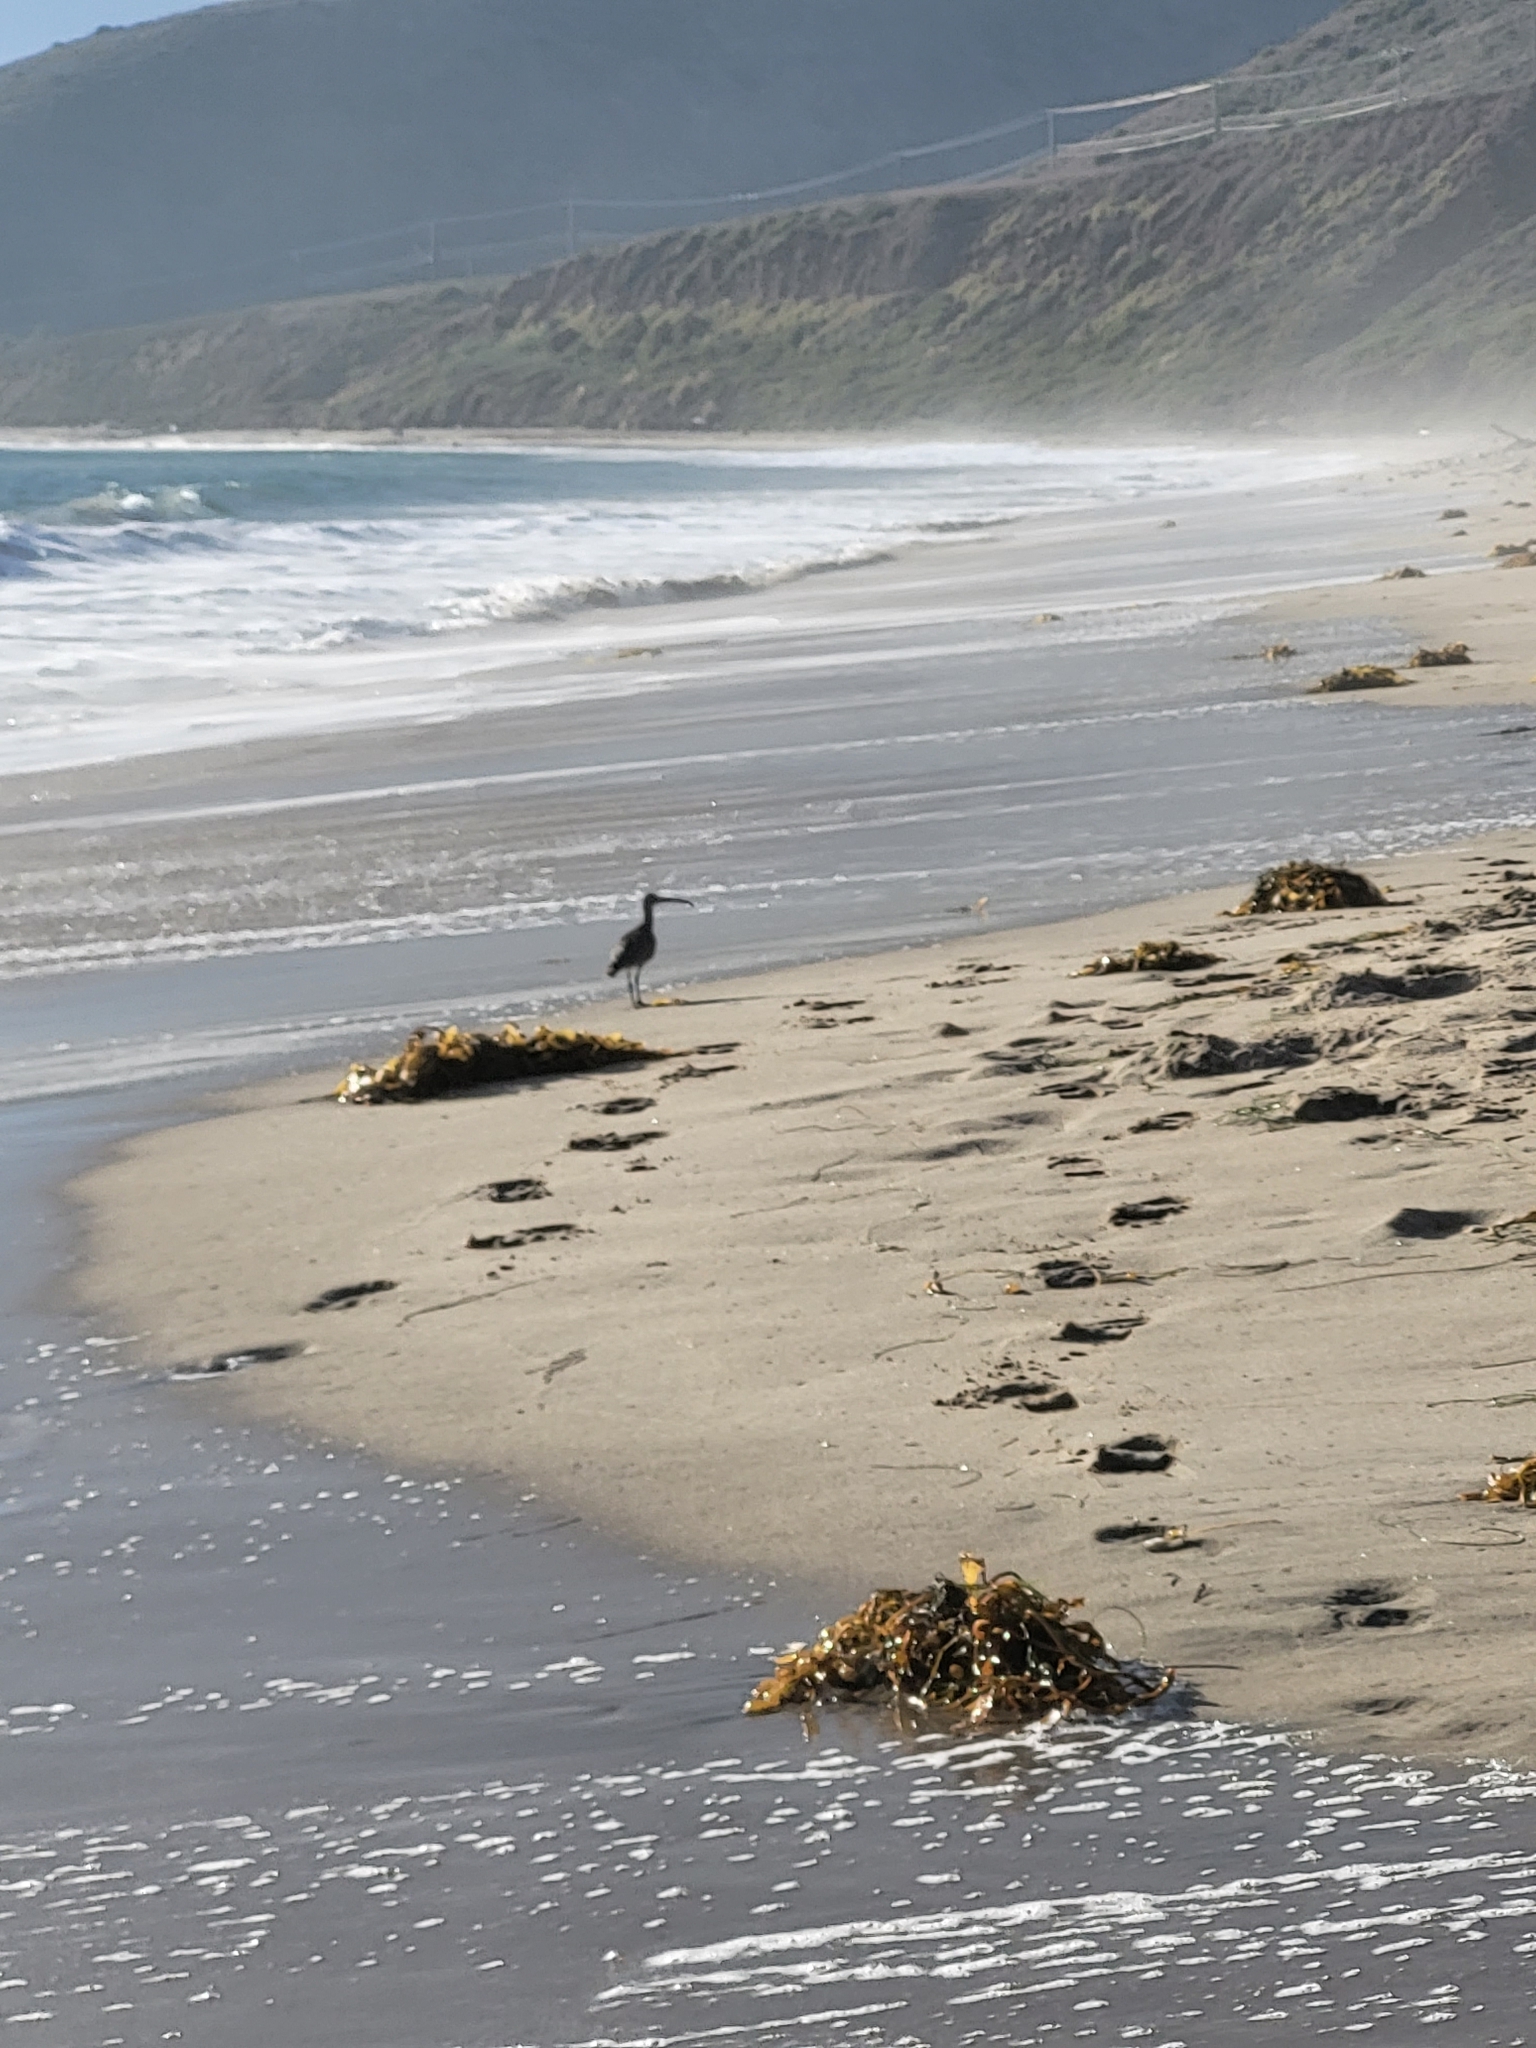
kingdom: Animalia
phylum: Chordata
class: Aves
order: Charadriiformes
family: Scolopacidae
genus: Numenius
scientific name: Numenius phaeopus
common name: Whimbrel
